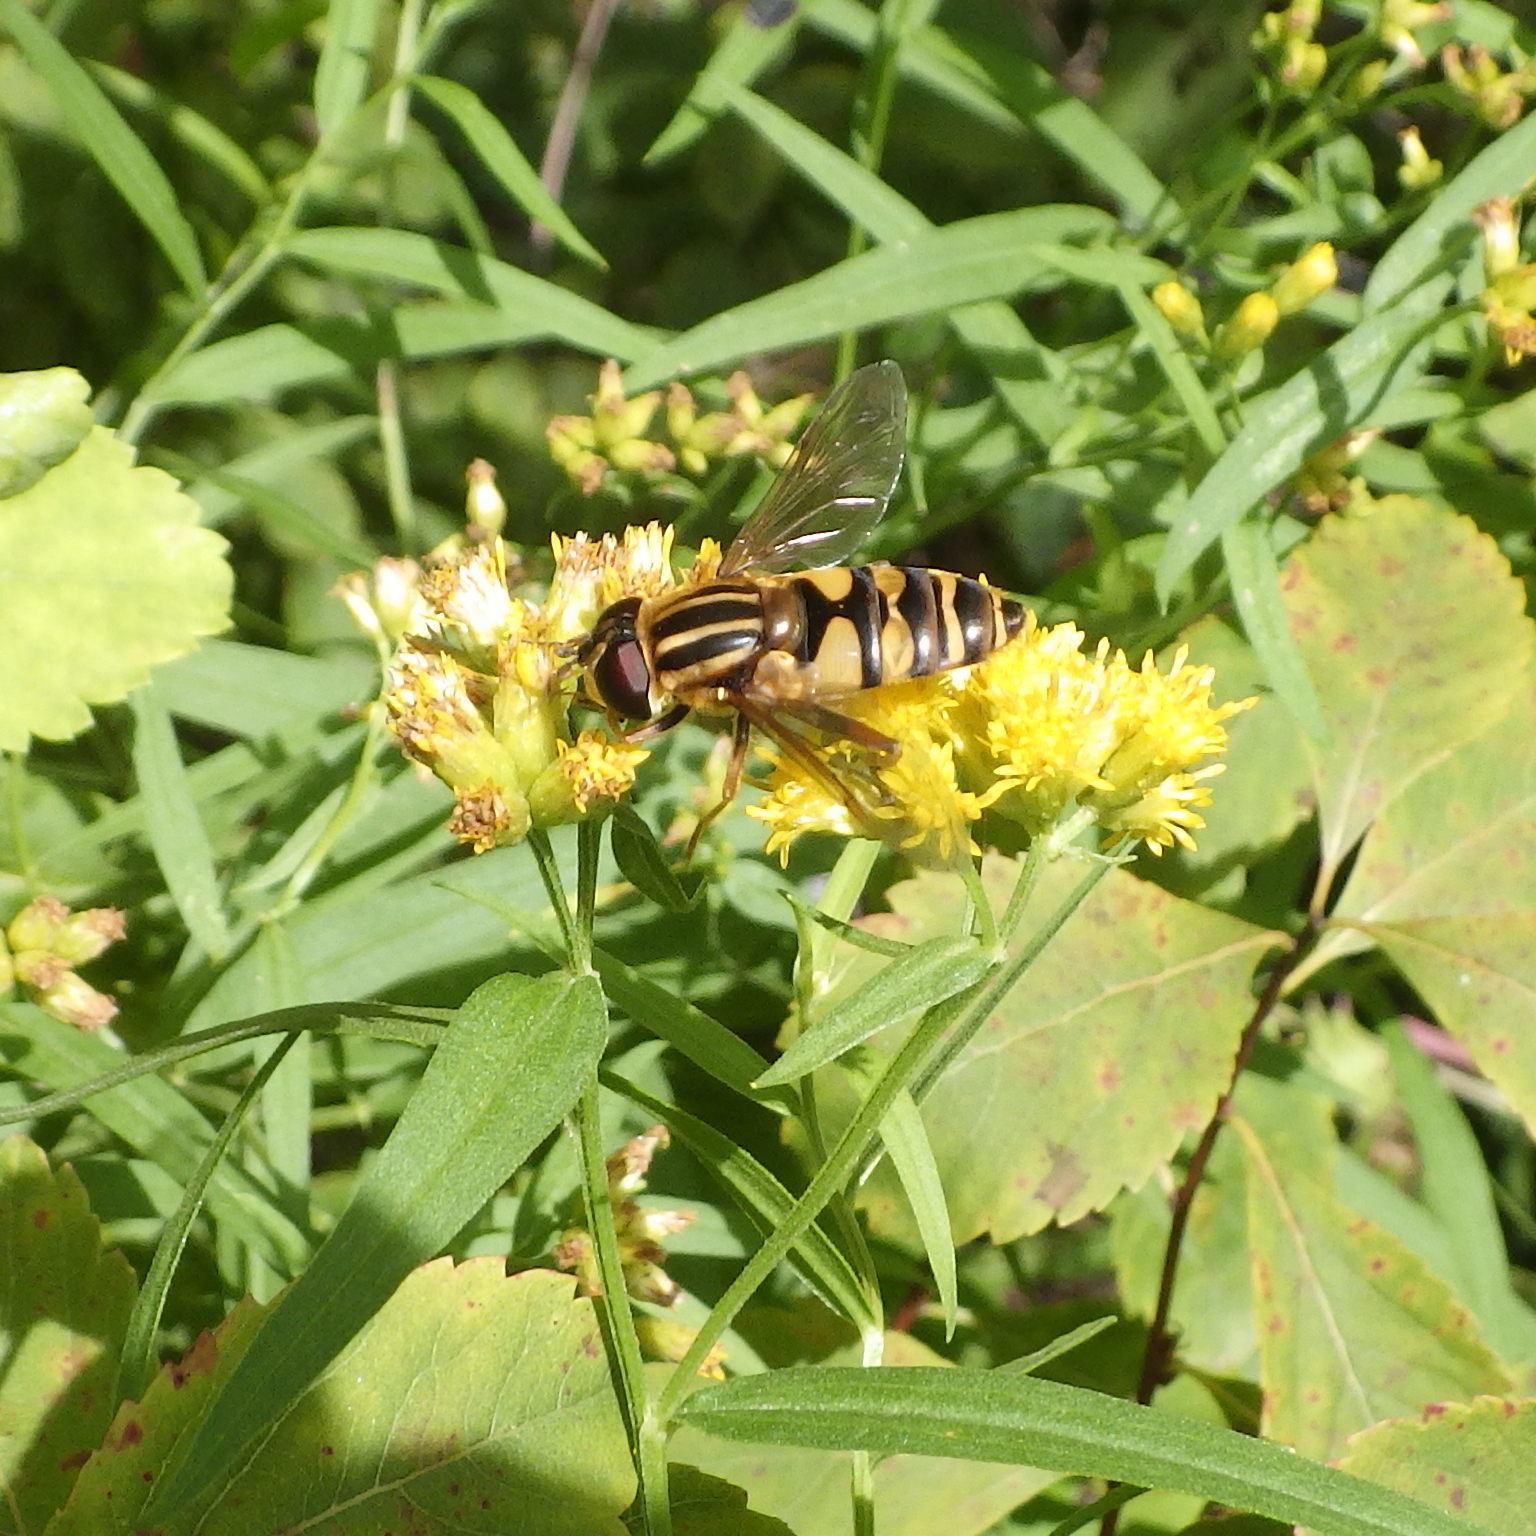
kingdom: Animalia
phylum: Arthropoda
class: Insecta
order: Diptera
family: Syrphidae
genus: Helophilus
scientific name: Helophilus fasciatus
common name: Narrow-headed marsh fly
